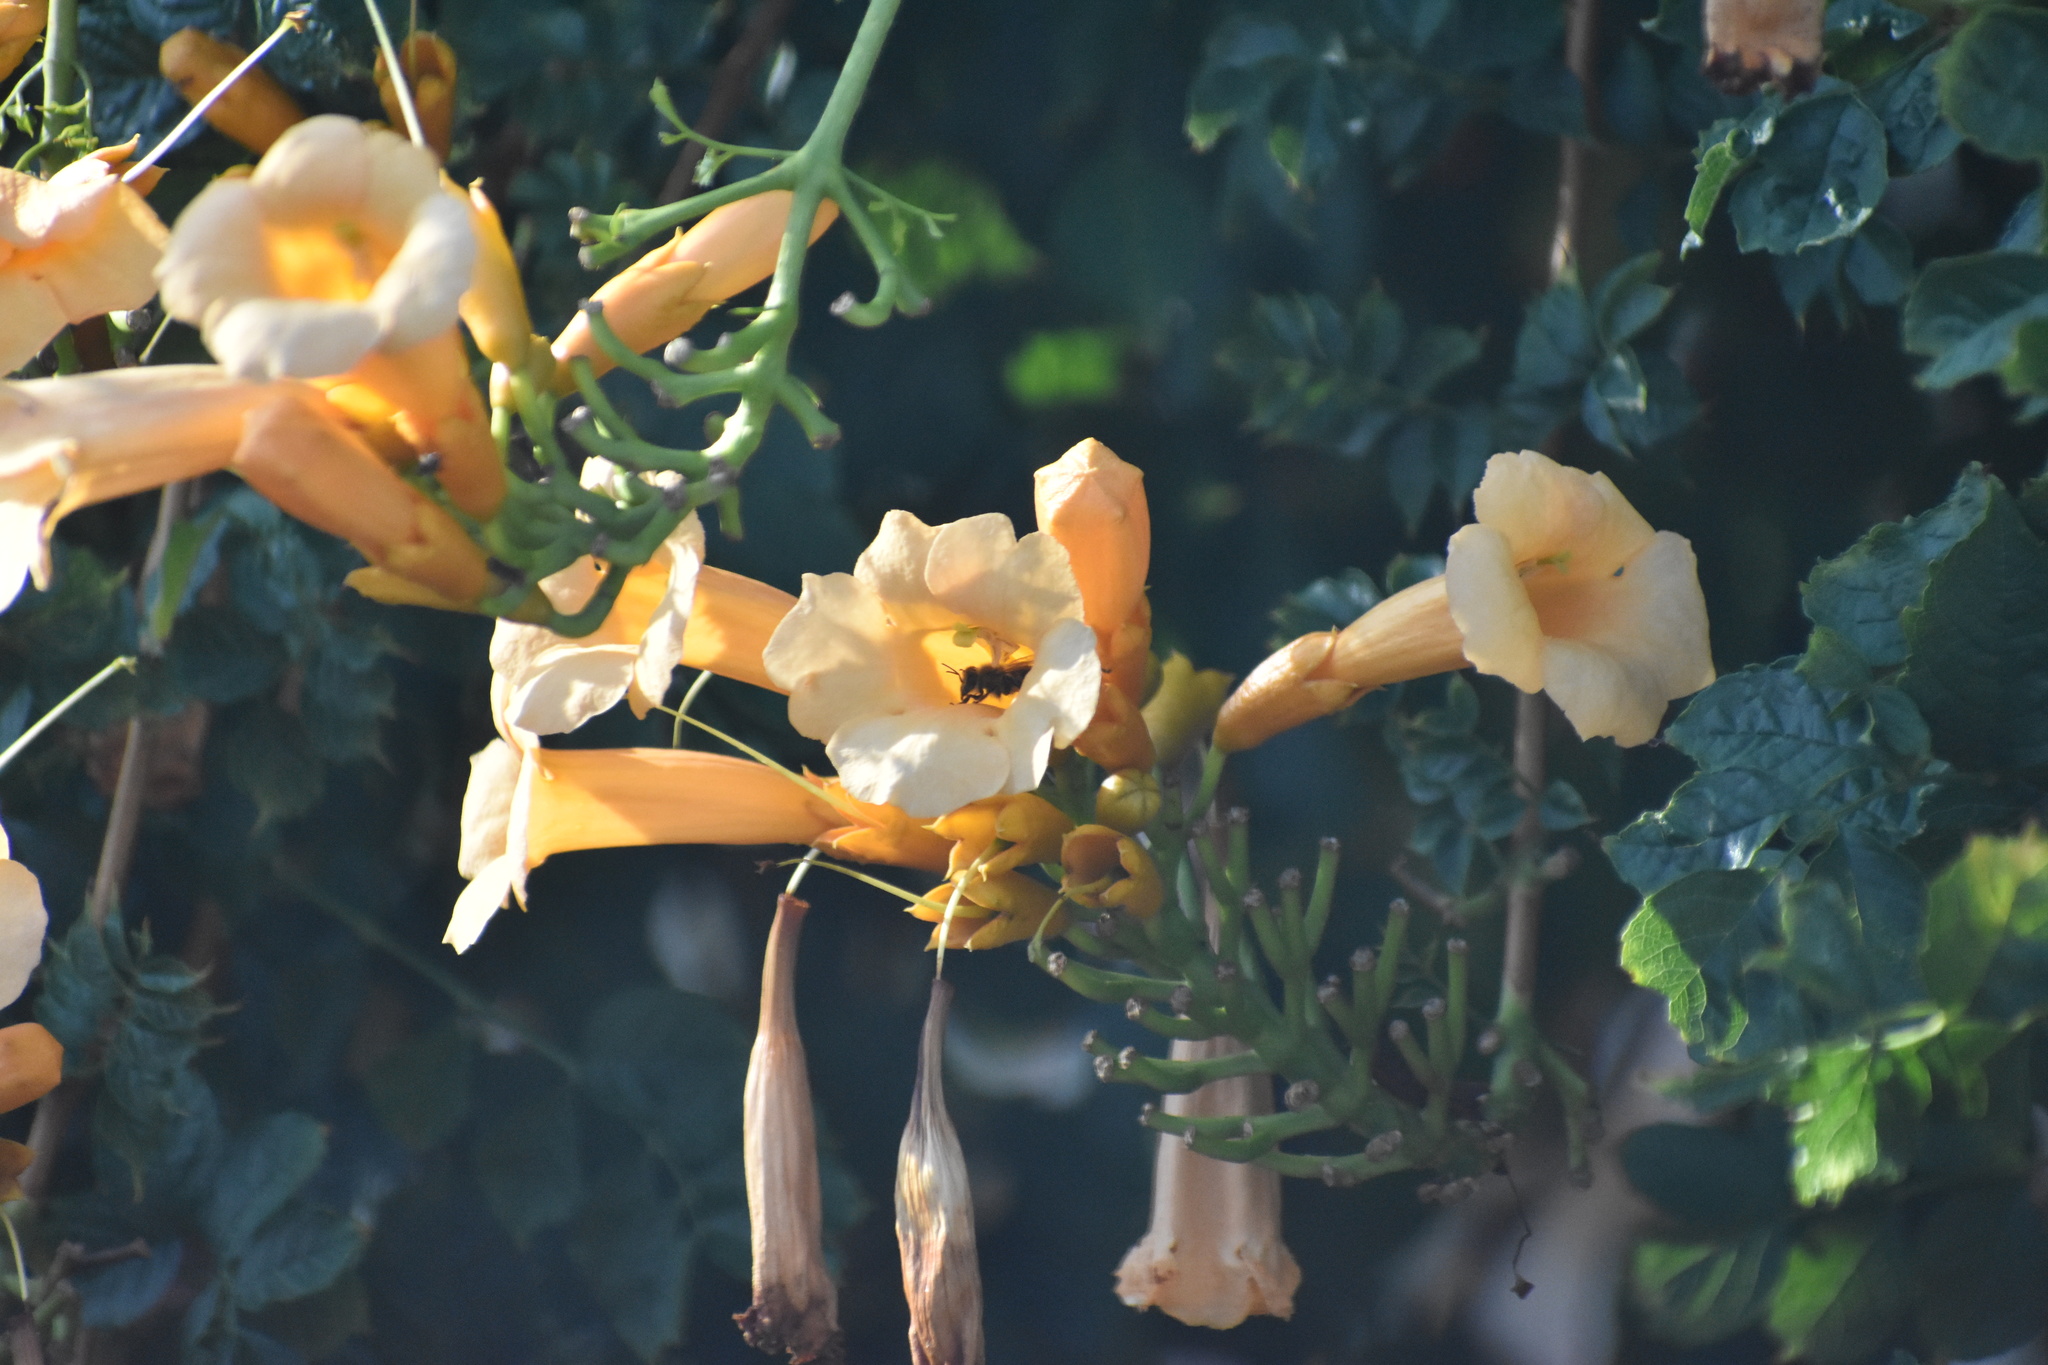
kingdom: Plantae
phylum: Tracheophyta
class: Magnoliopsida
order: Lamiales
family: Bignoniaceae
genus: Campsis
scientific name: Campsis radicans
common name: Trumpet-creeper
